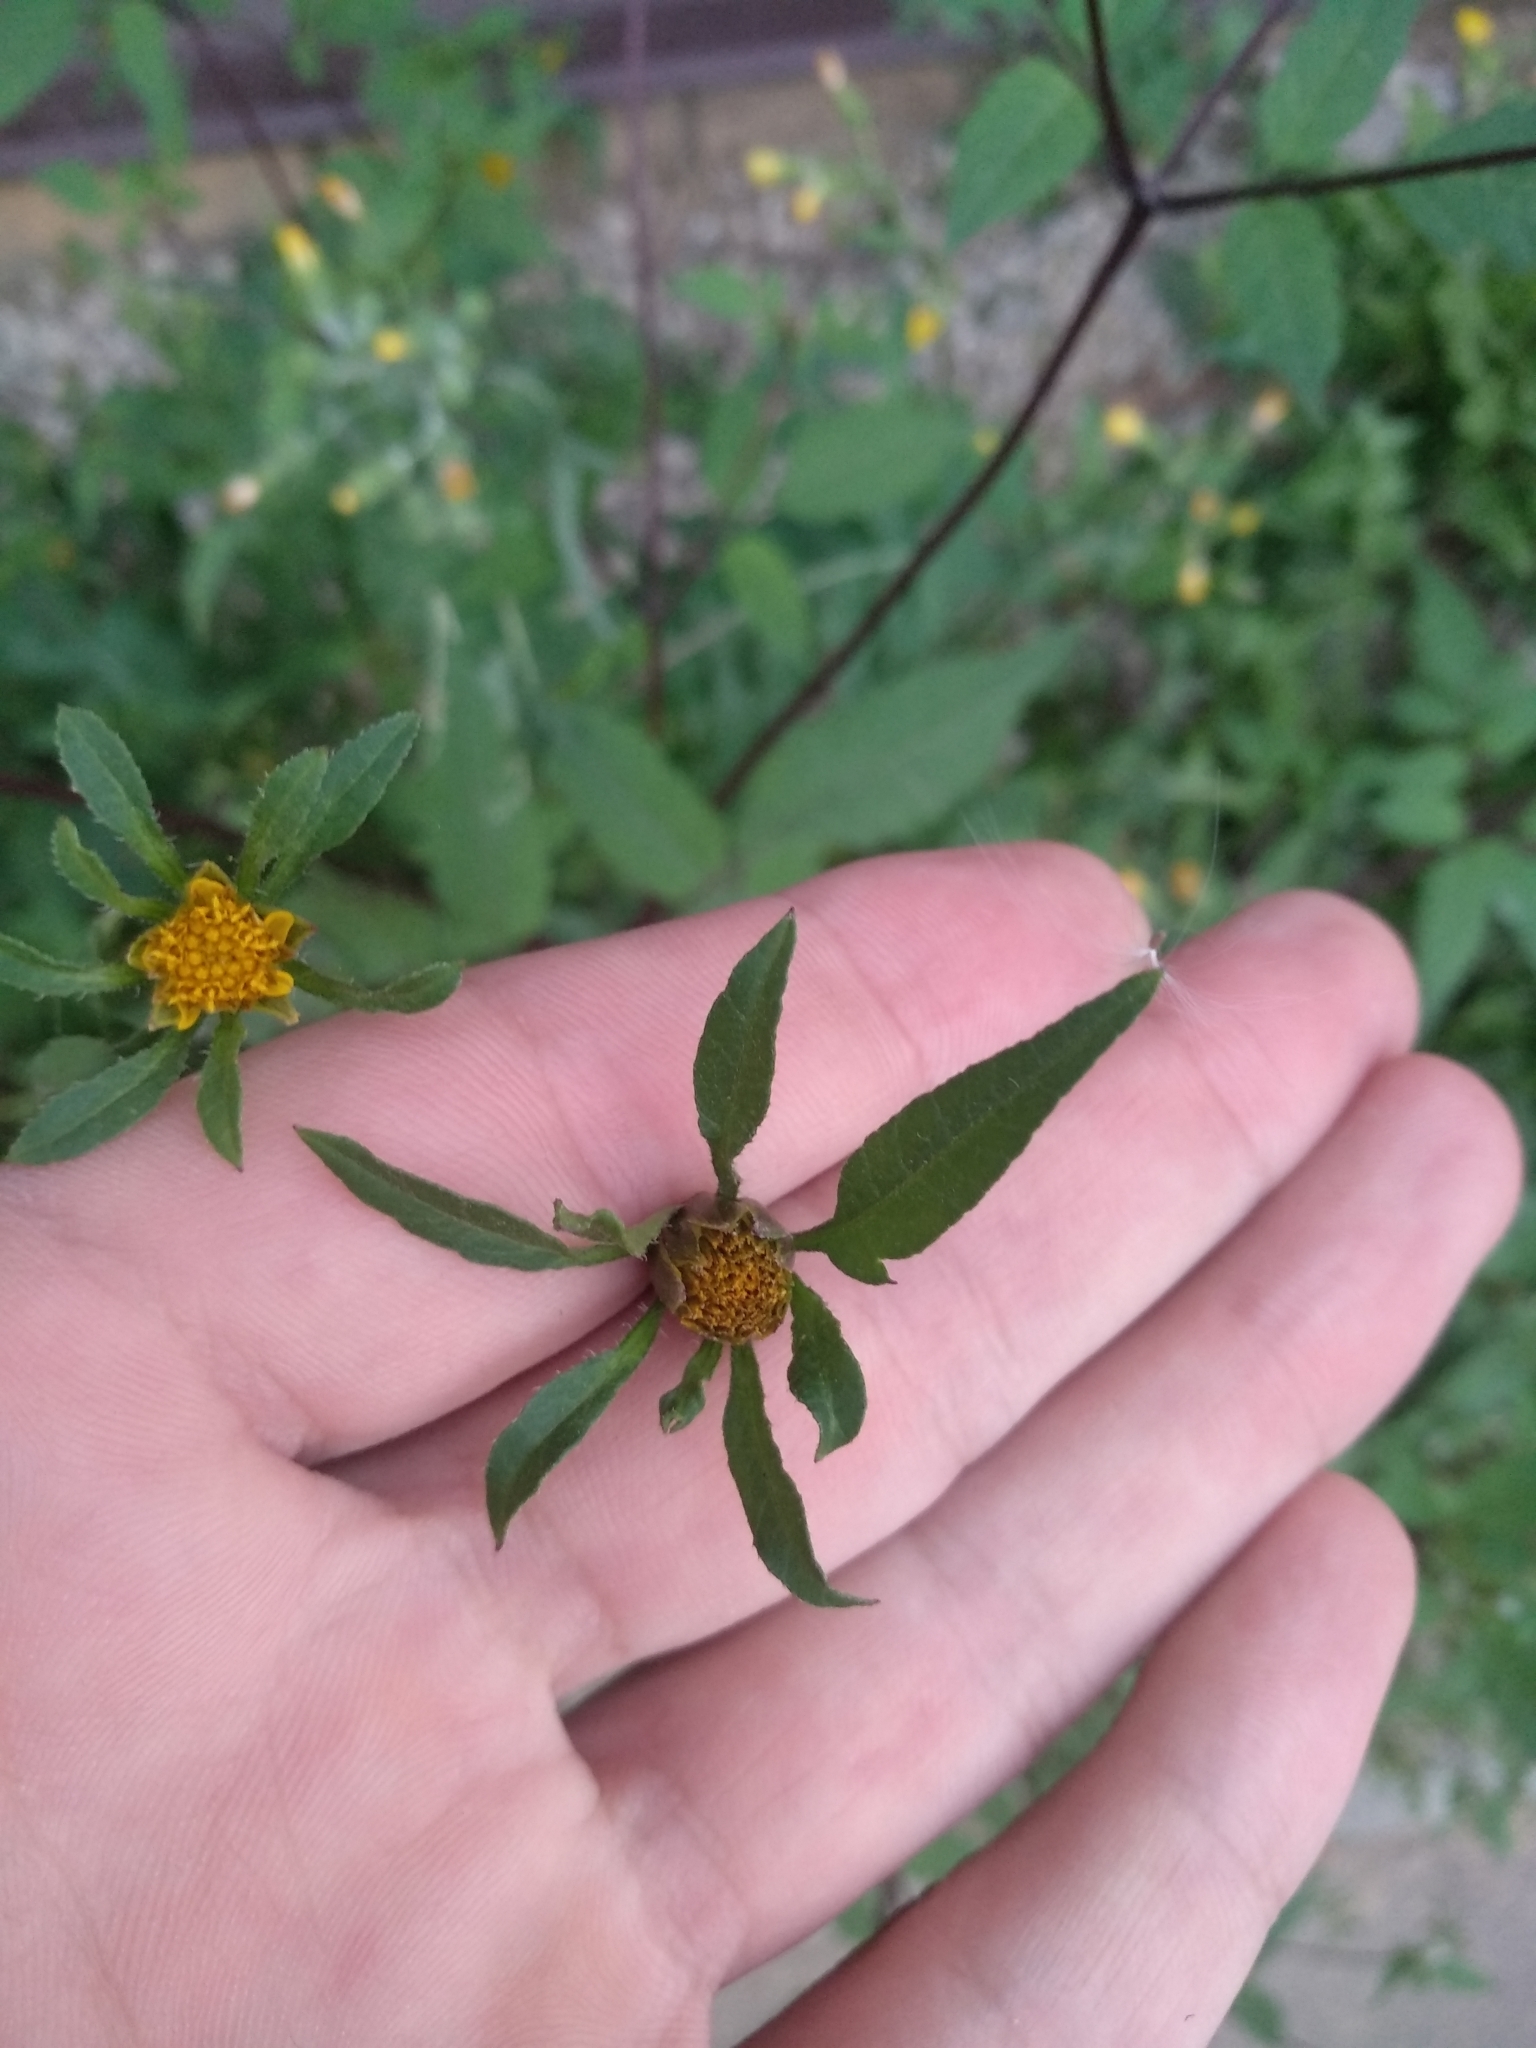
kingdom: Plantae
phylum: Tracheophyta
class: Magnoliopsida
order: Asterales
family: Asteraceae
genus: Bidens
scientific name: Bidens frondosa
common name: Beggarticks
